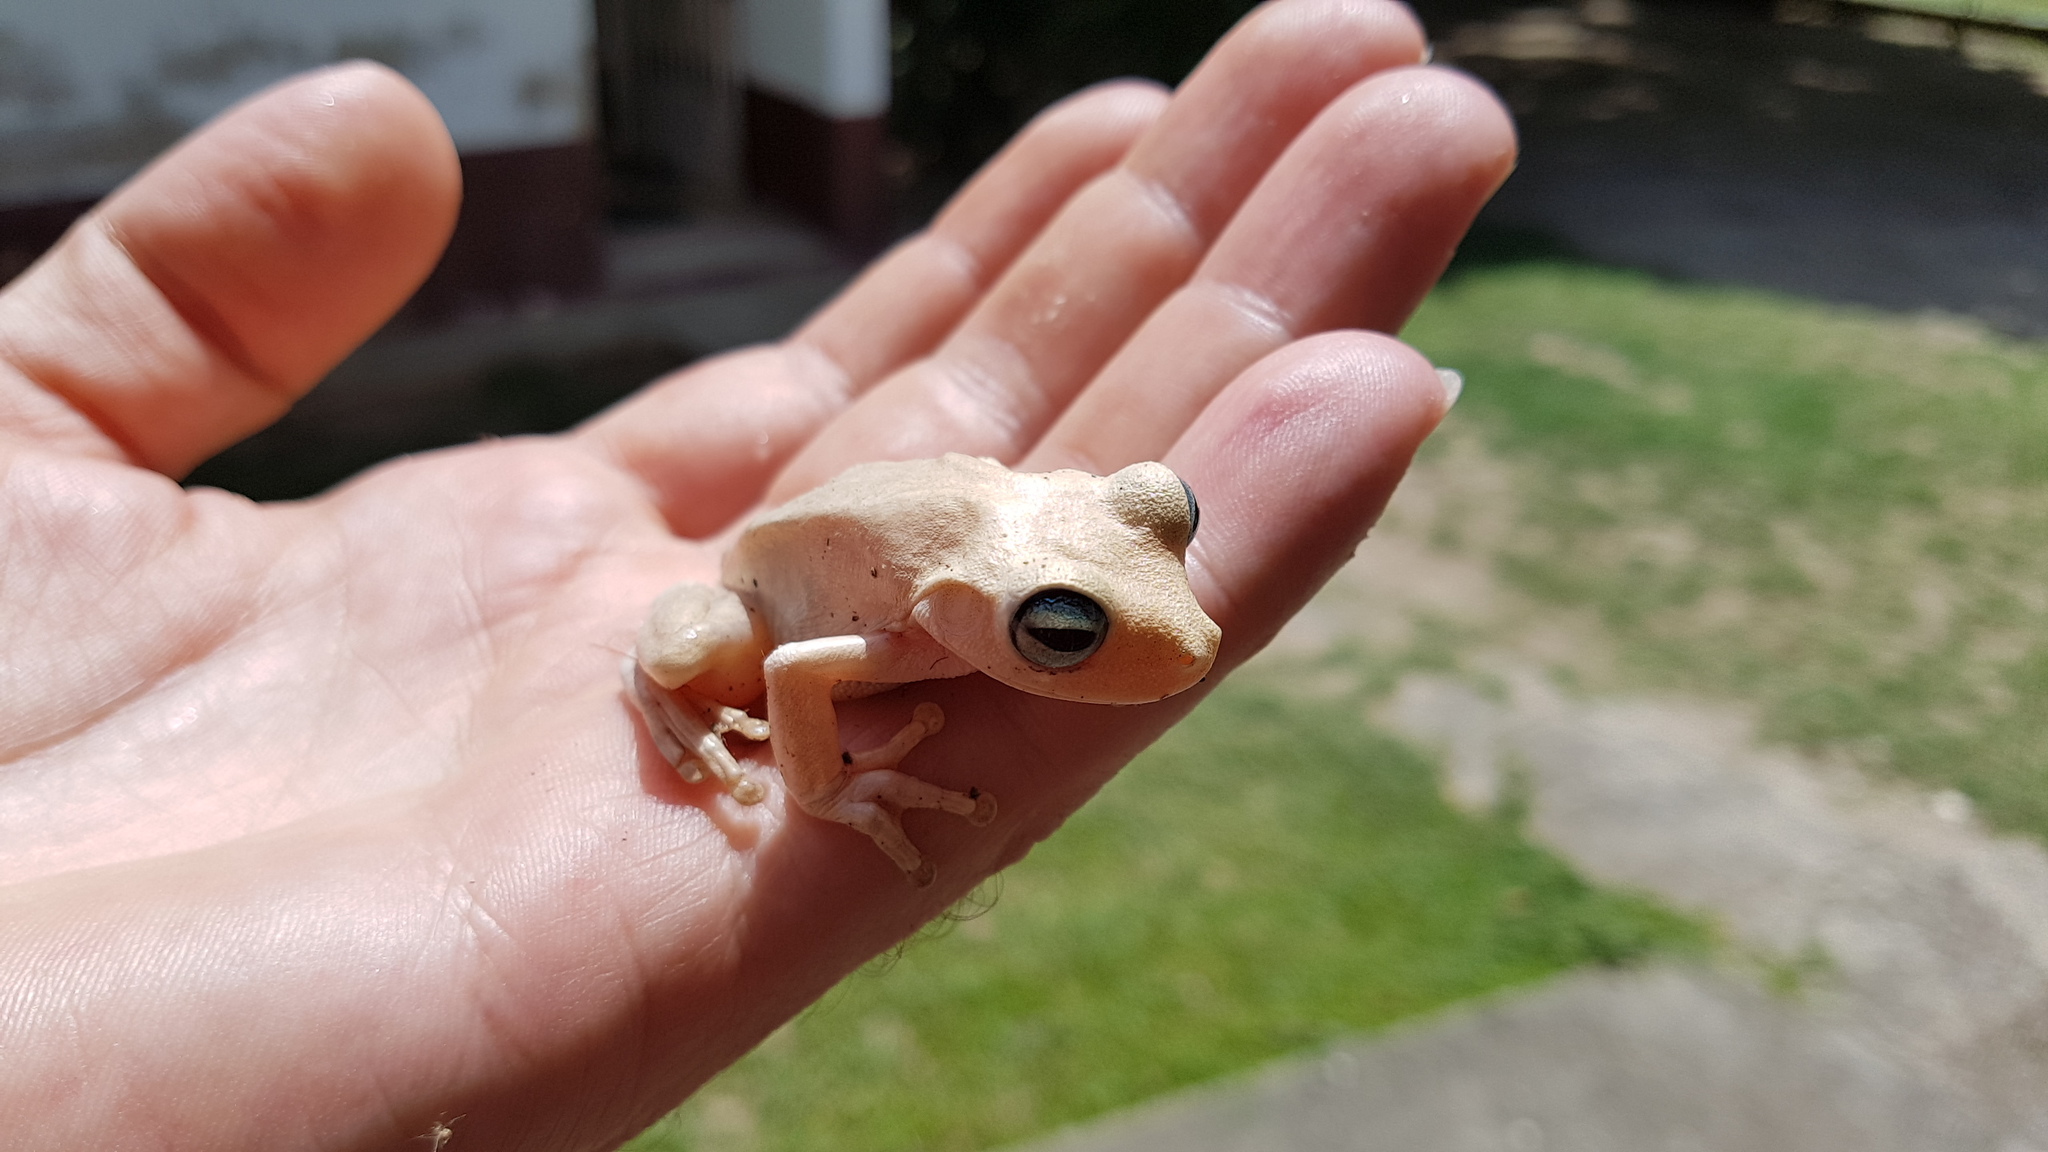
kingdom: Animalia
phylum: Chordata
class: Amphibia
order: Anura
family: Hylidae
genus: Boana
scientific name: Boana pugnax
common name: Chirique-flusse treefrog
